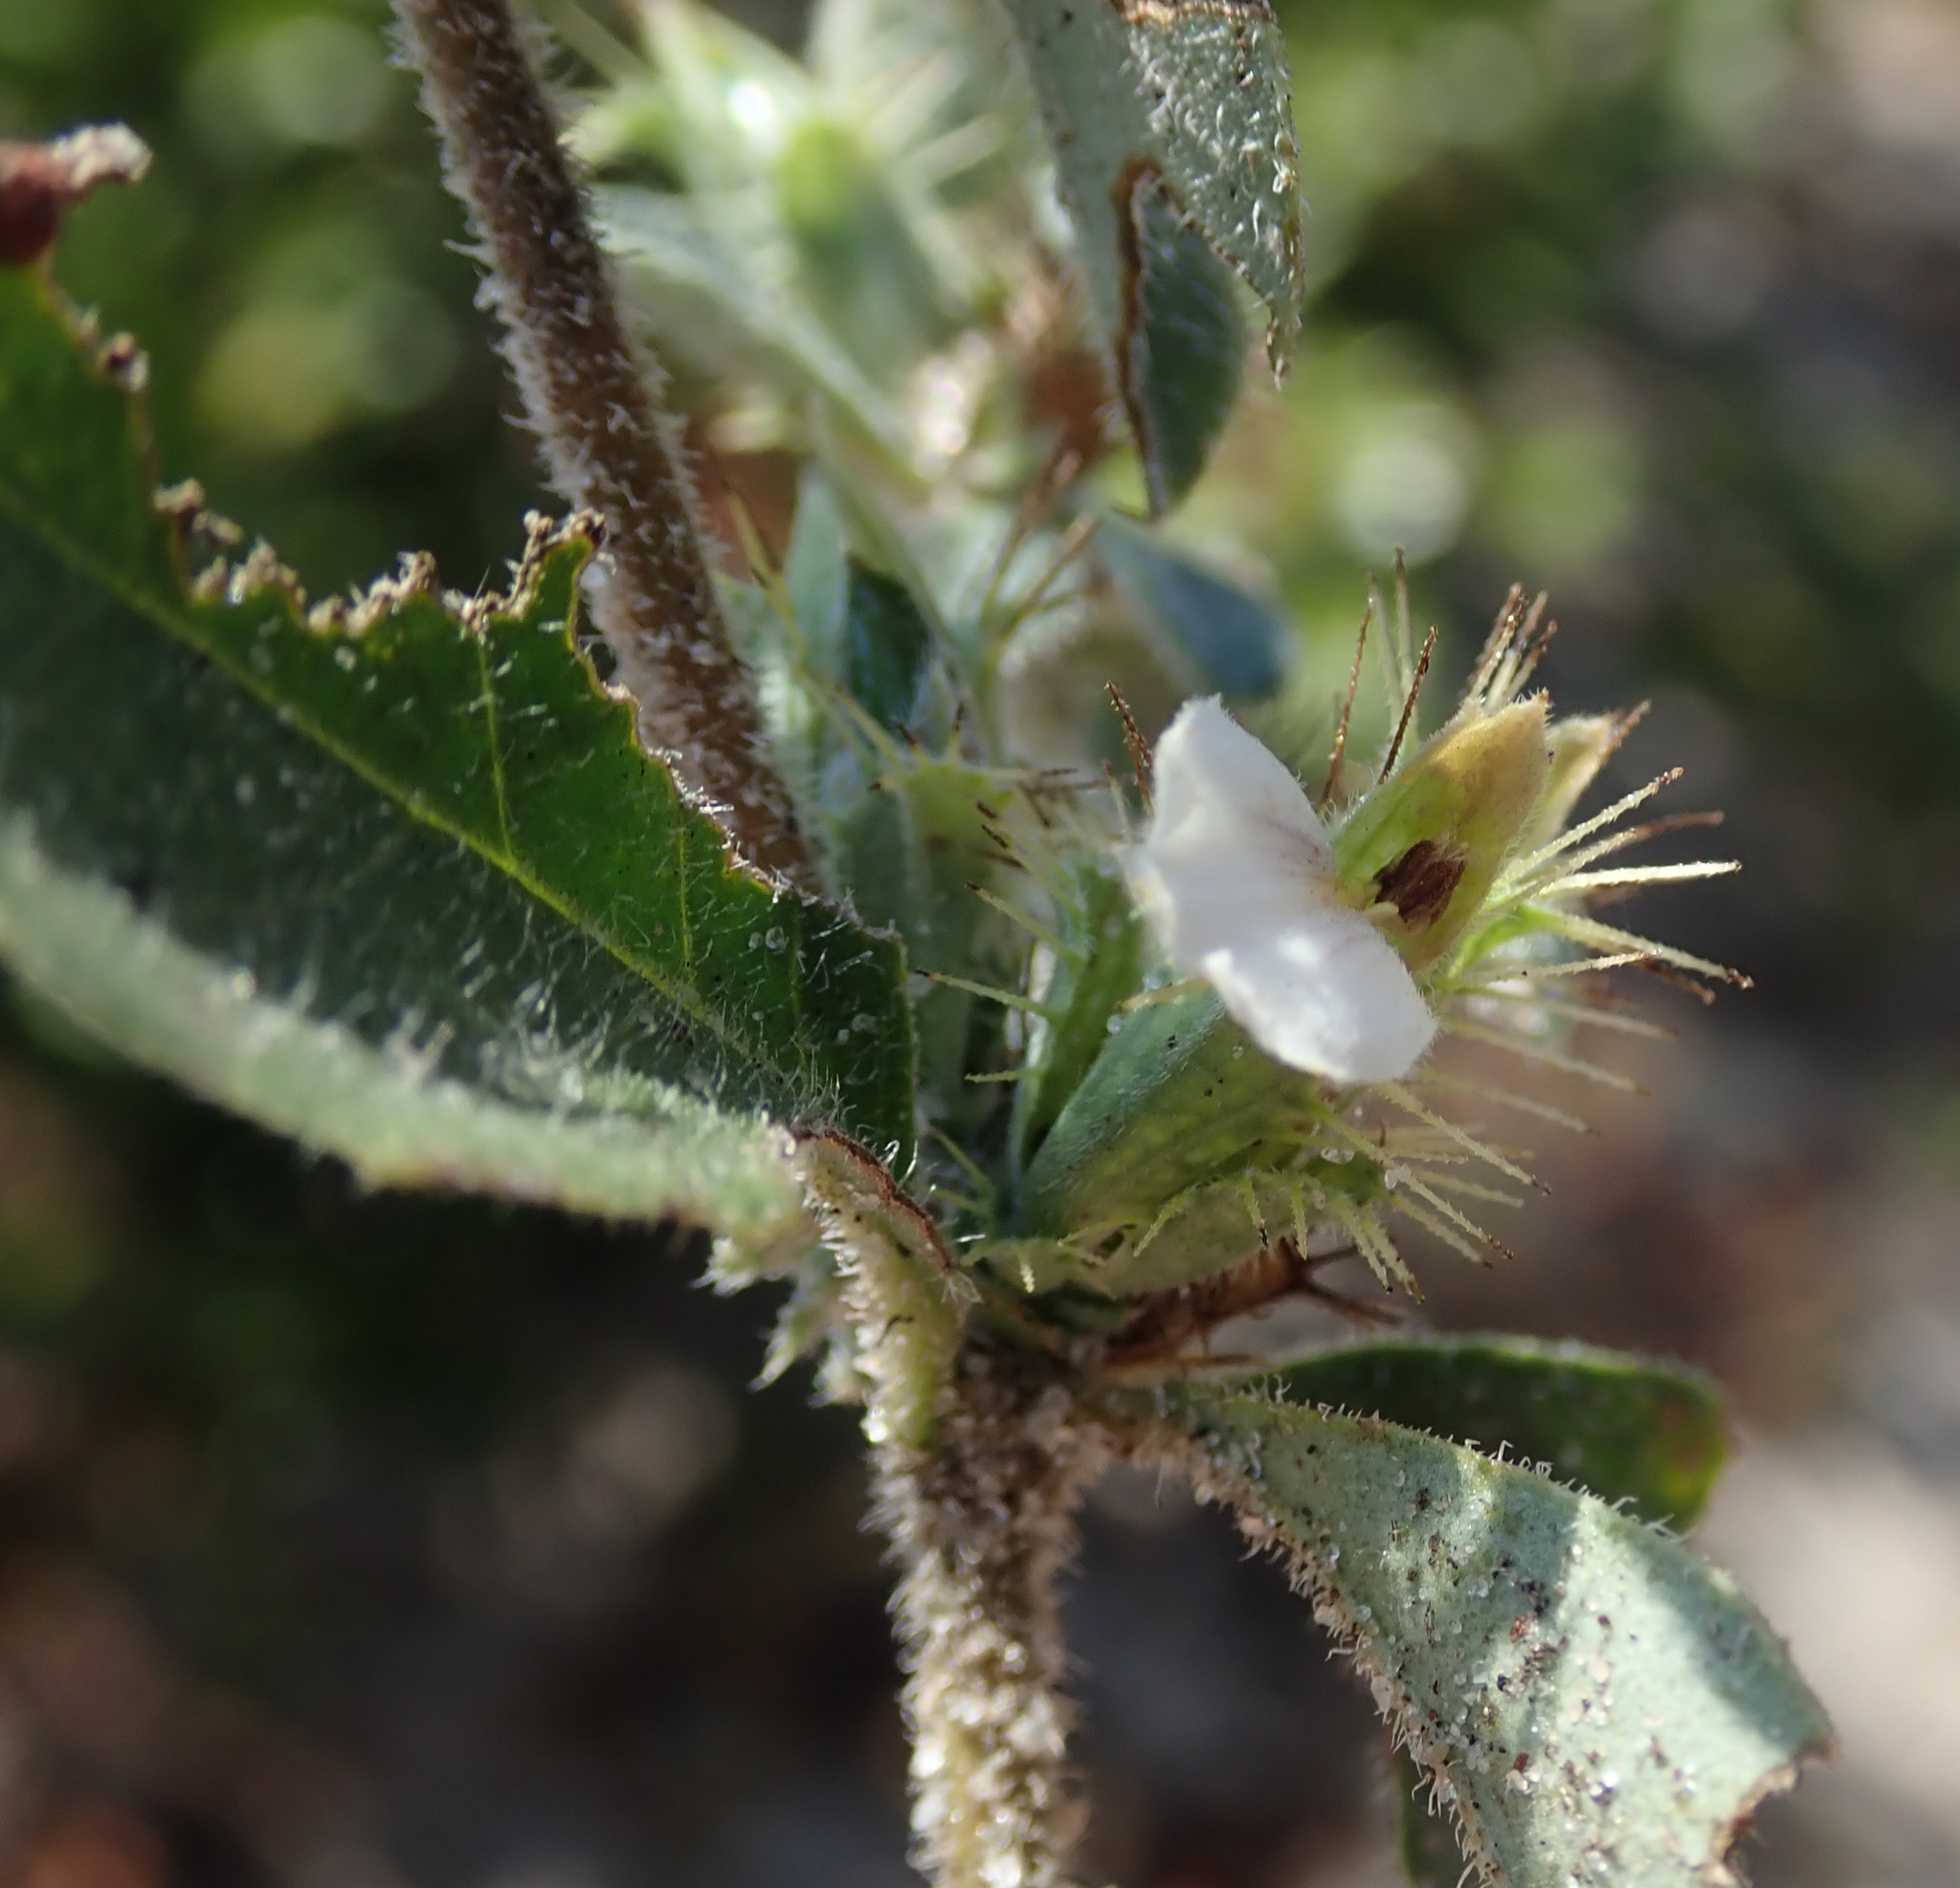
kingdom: Plantae
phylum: Tracheophyta
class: Magnoliopsida
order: Lamiales
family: Acanthaceae
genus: Blepharis
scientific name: Blepharis maderaspatensis
